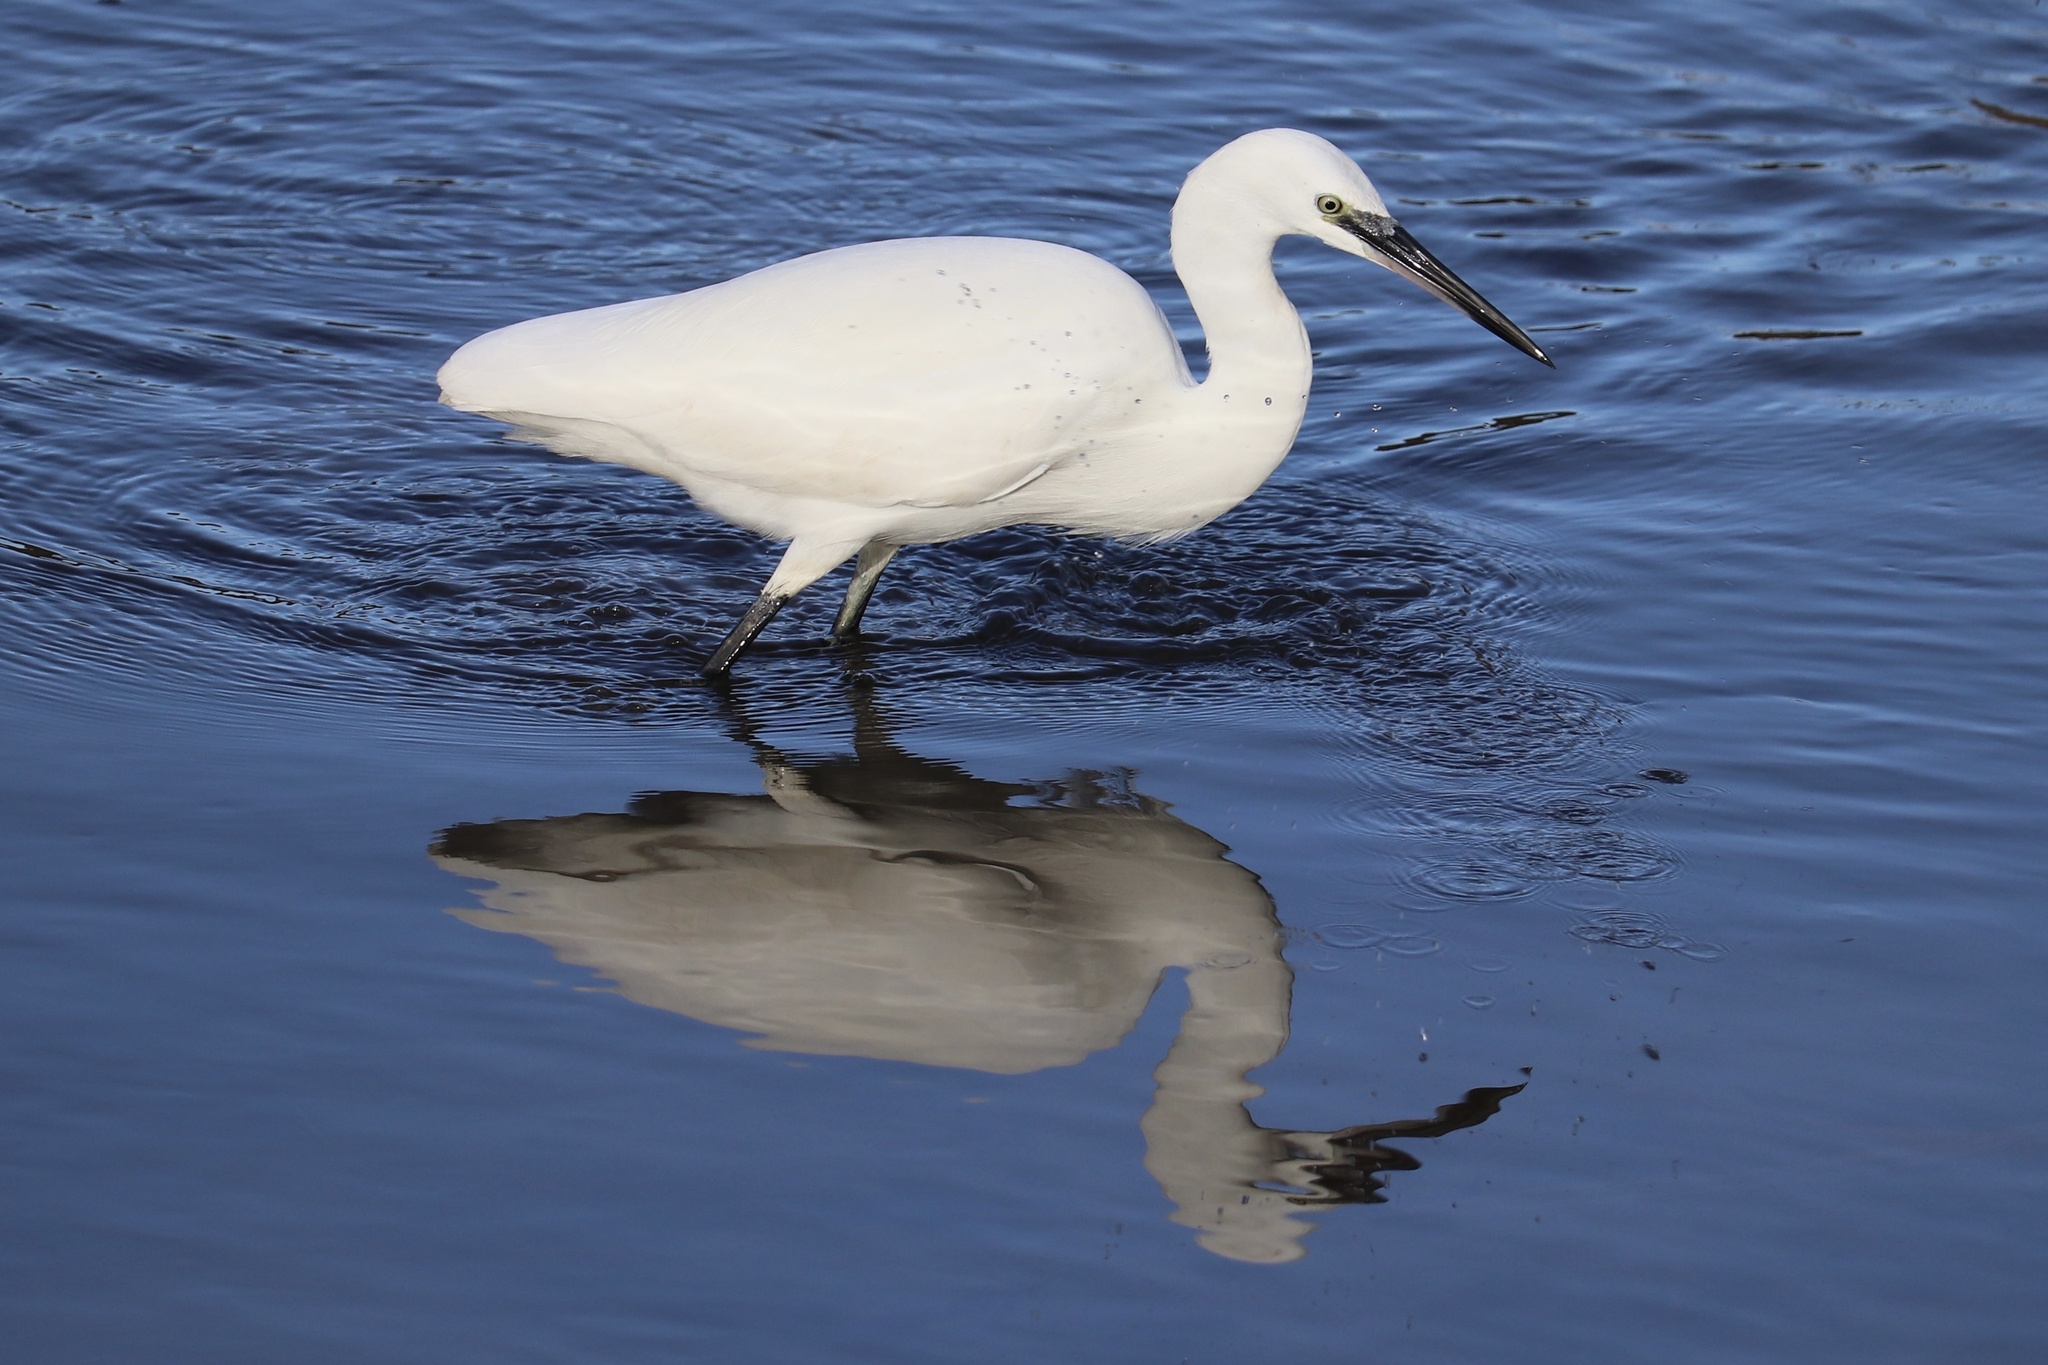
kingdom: Animalia
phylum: Chordata
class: Aves
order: Pelecaniformes
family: Ardeidae
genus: Egretta
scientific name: Egretta garzetta
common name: Little egret
